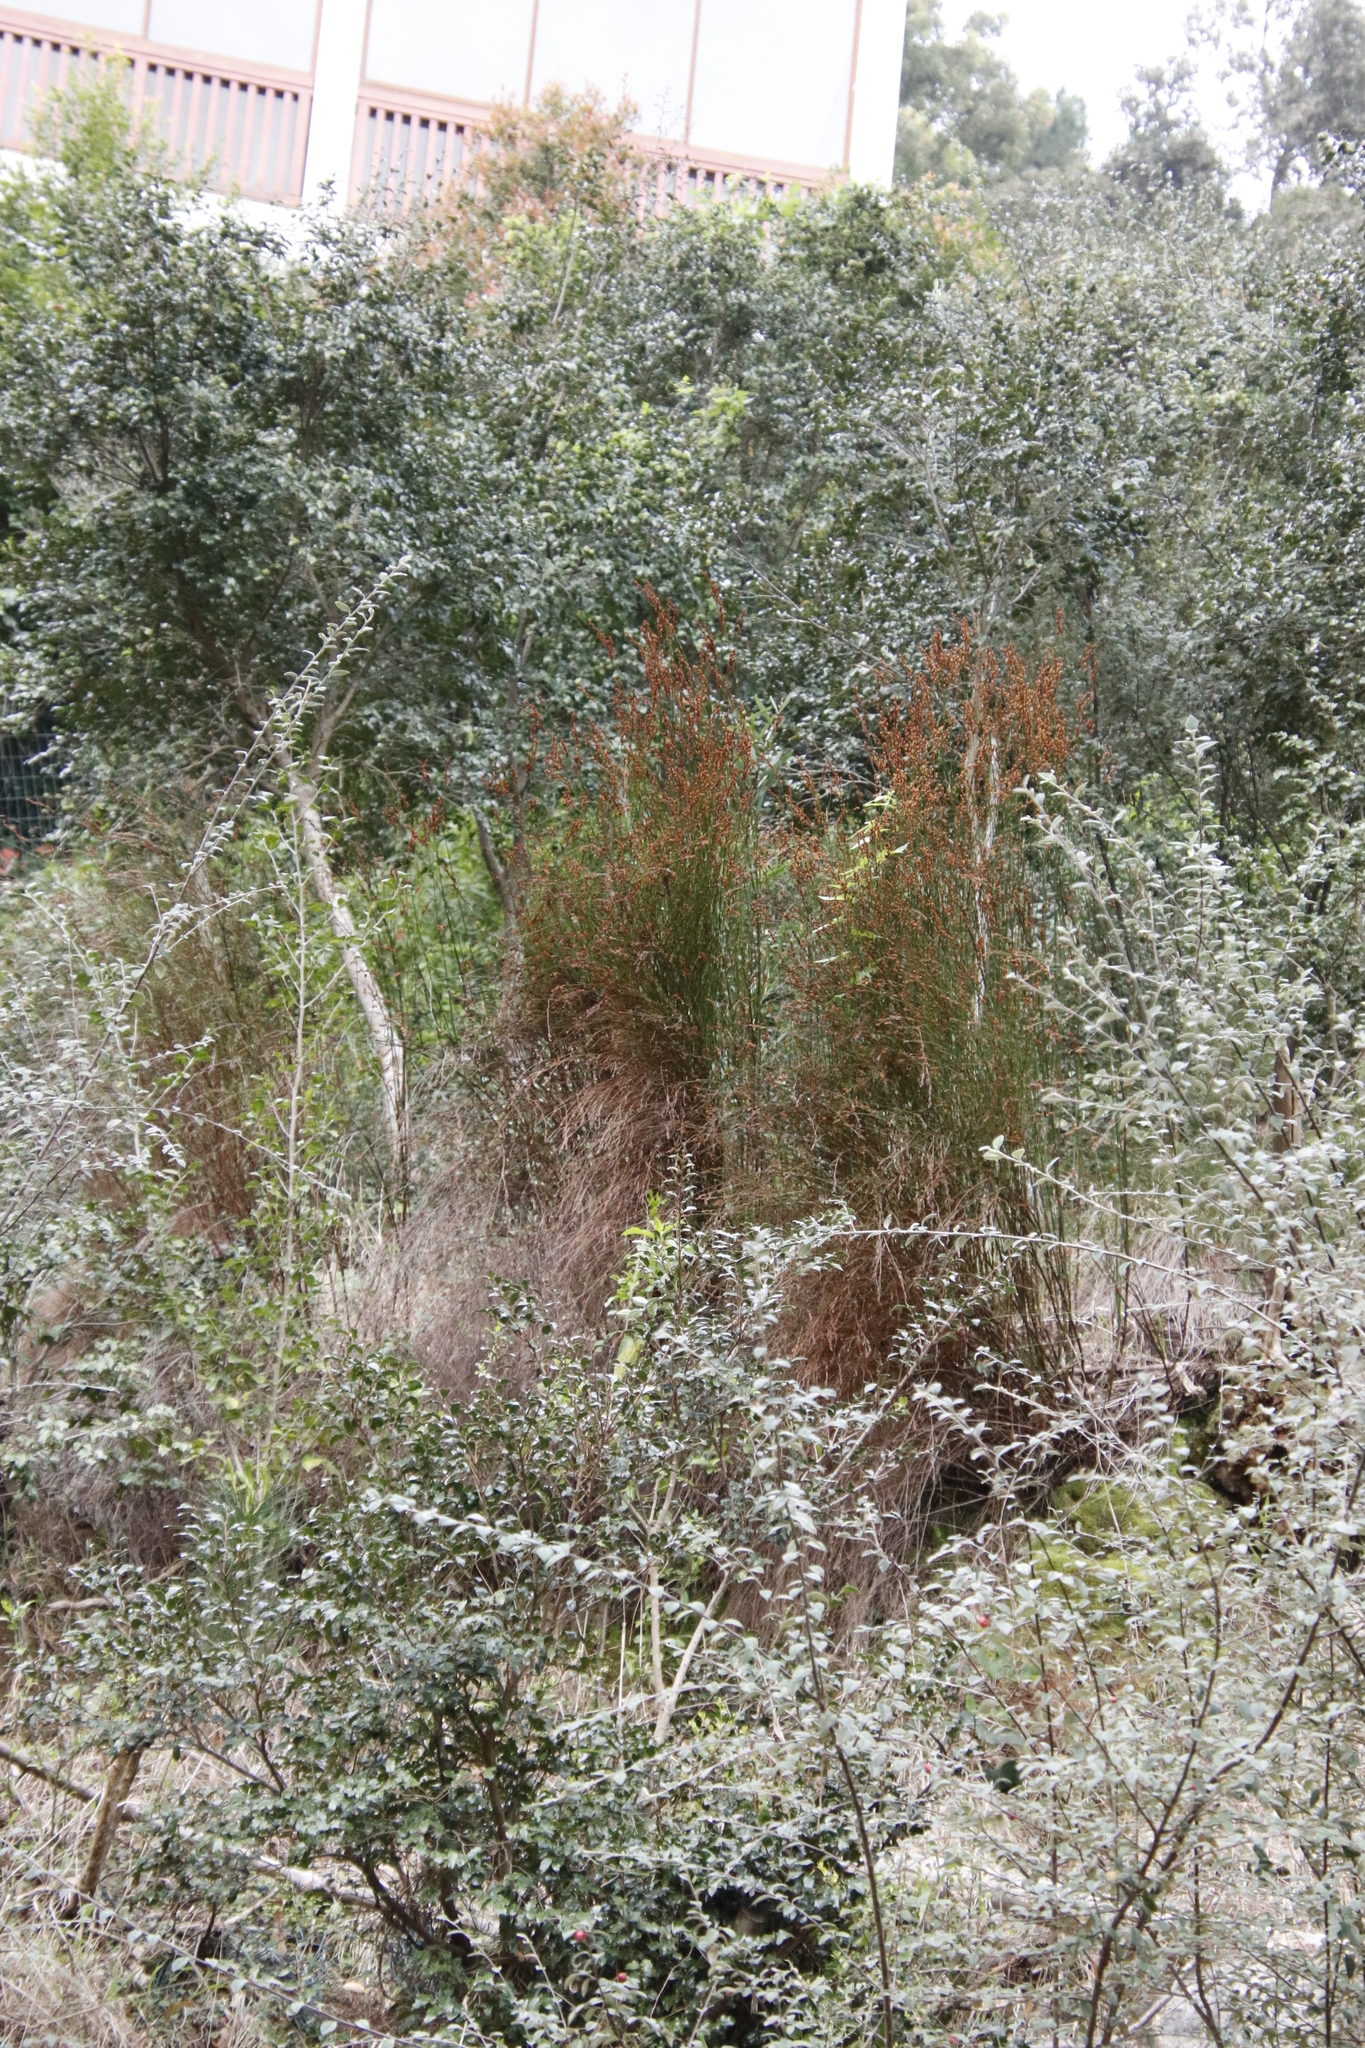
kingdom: Plantae
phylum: Tracheophyta
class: Liliopsida
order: Poales
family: Restionaceae
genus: Restio
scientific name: Restio paniculatus
